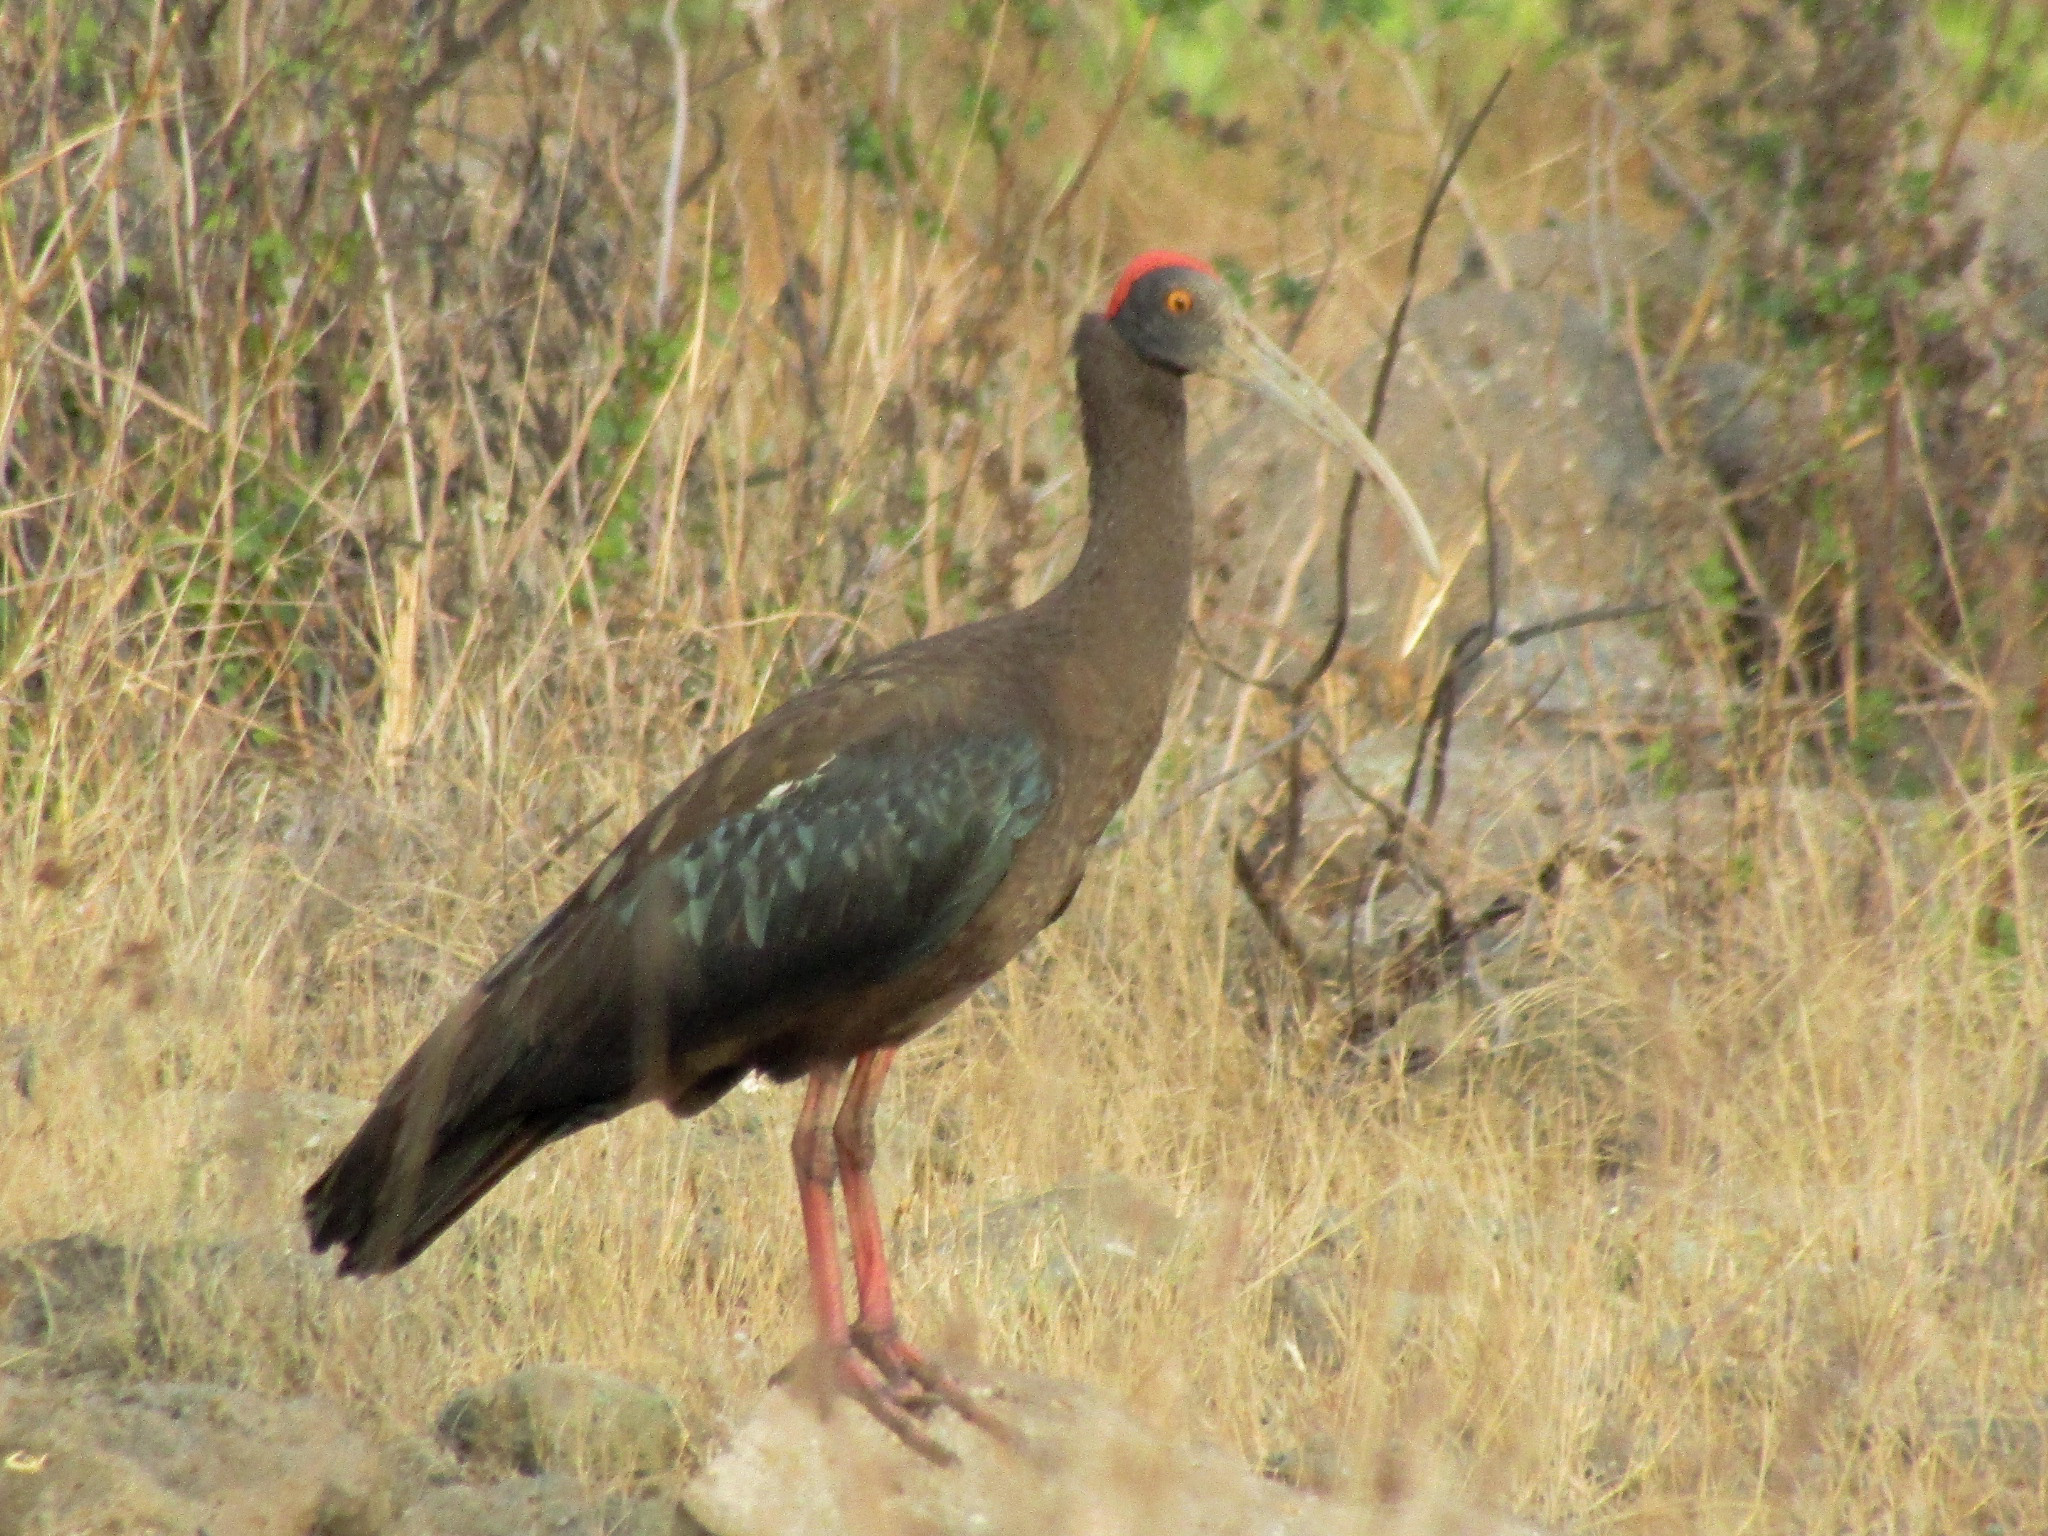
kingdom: Animalia
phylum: Chordata
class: Aves
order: Pelecaniformes
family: Threskiornithidae
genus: Pseudibis
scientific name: Pseudibis papillosa
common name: Red-naped ibis
